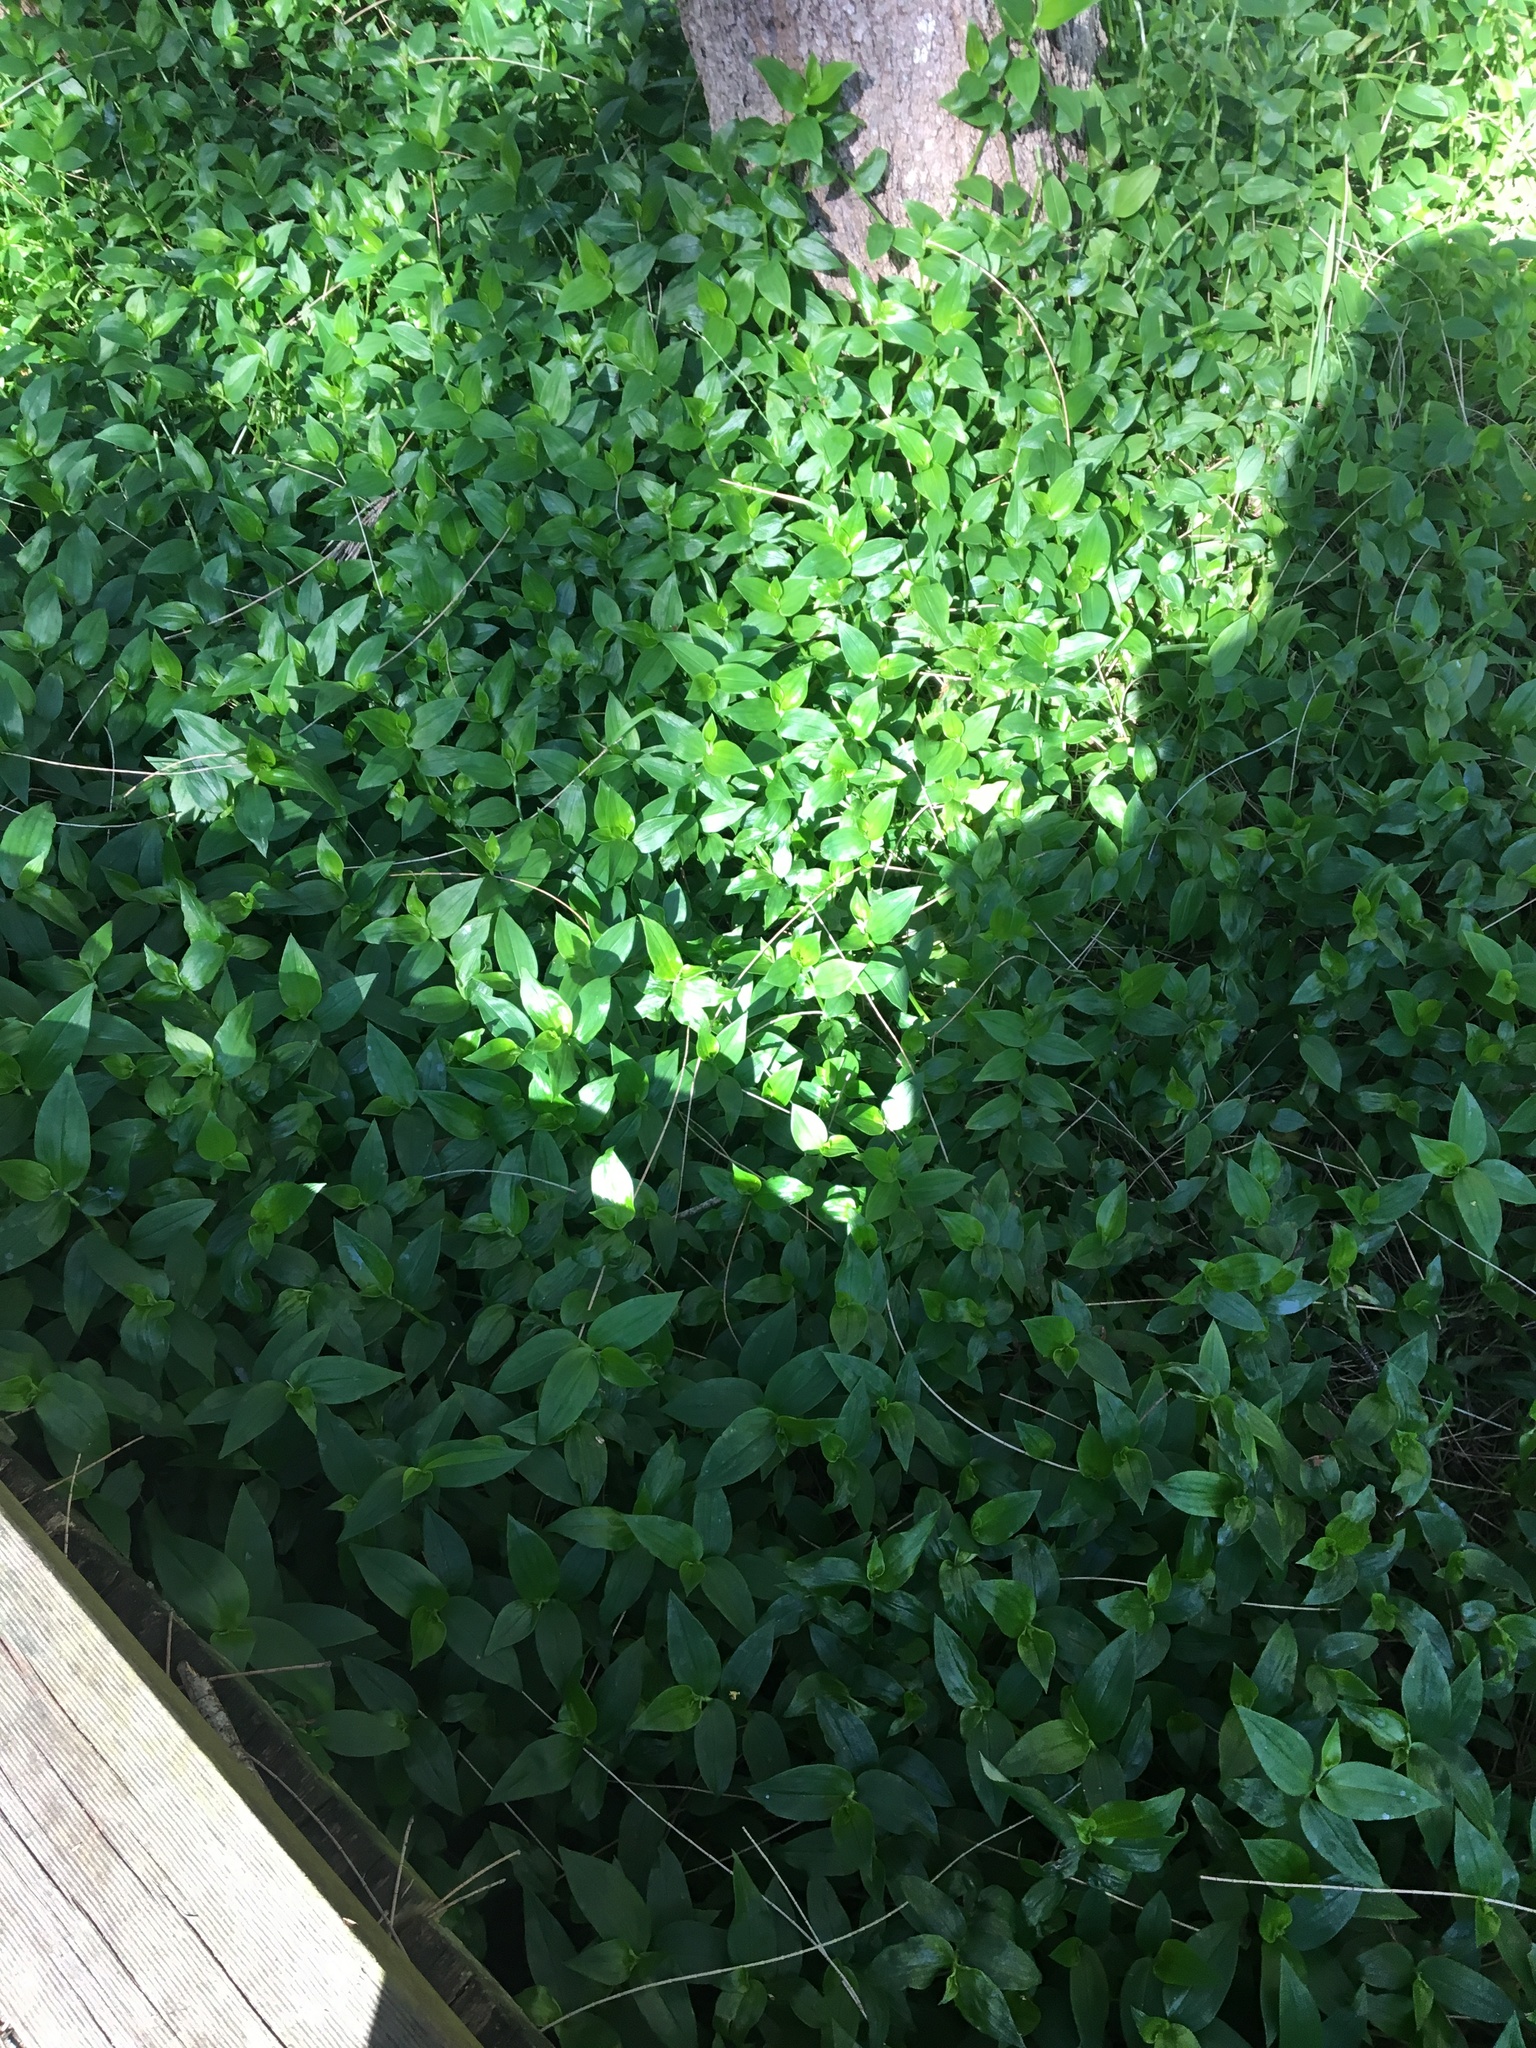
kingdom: Plantae
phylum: Tracheophyta
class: Liliopsida
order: Commelinales
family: Commelinaceae
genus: Tradescantia
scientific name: Tradescantia fluminensis
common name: Wandering-jew
